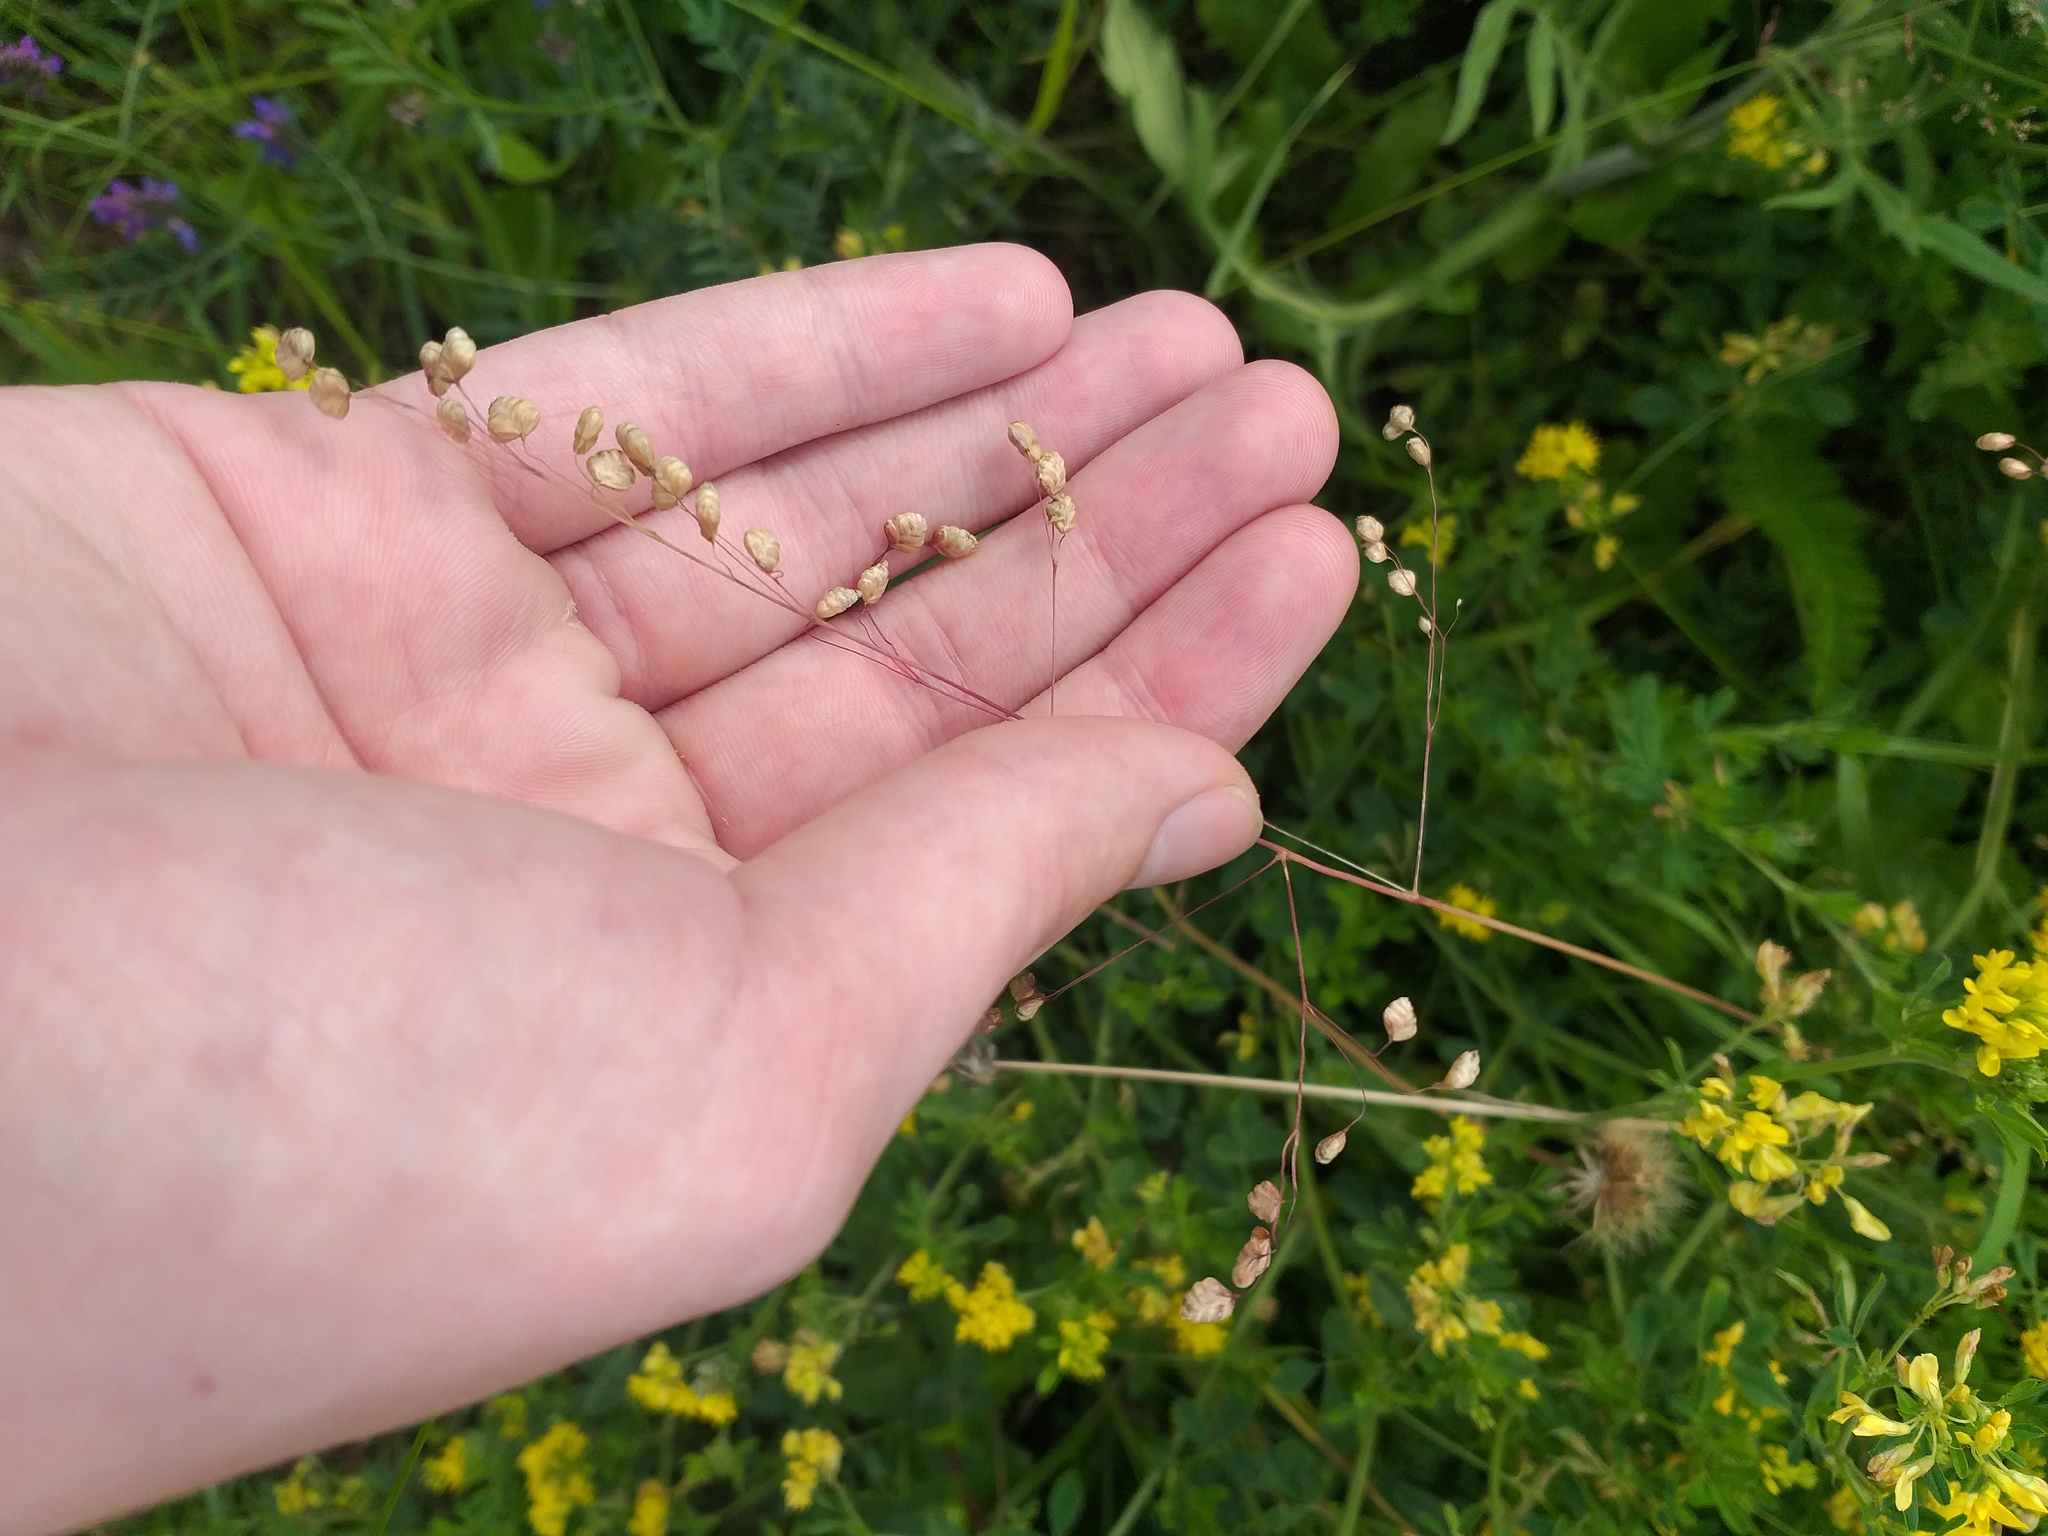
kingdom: Plantae
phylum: Tracheophyta
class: Liliopsida
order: Poales
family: Poaceae
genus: Briza
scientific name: Briza media
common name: Quaking grass
